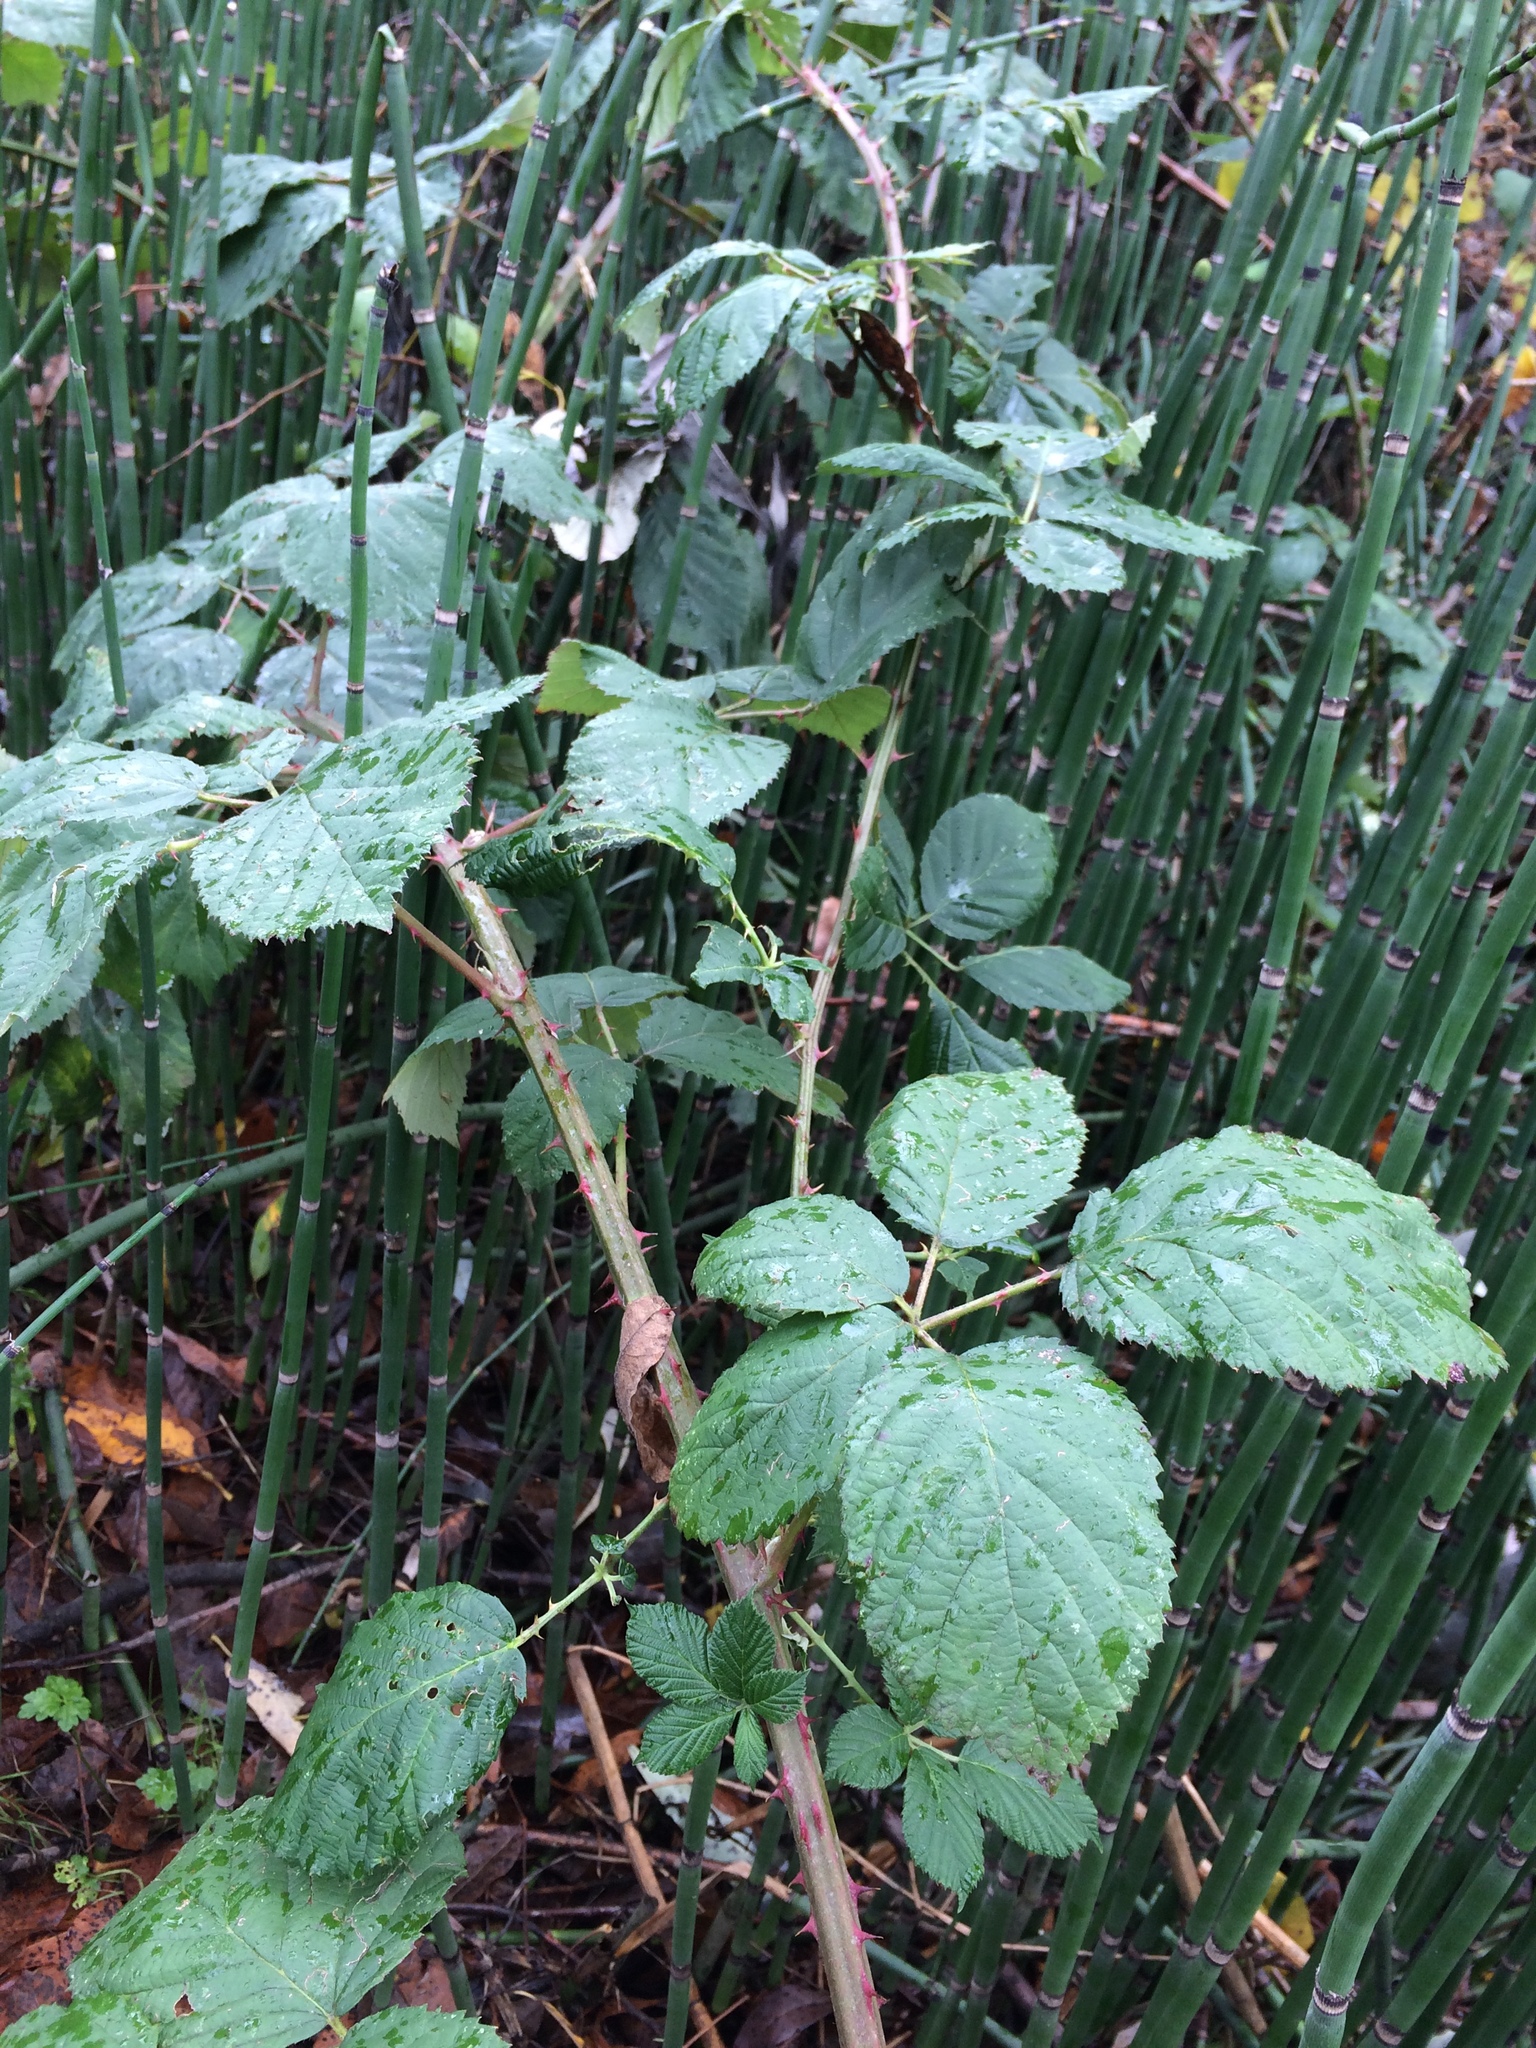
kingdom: Plantae
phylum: Tracheophyta
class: Magnoliopsida
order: Rosales
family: Rosaceae
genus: Rubus
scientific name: Rubus bifrons
